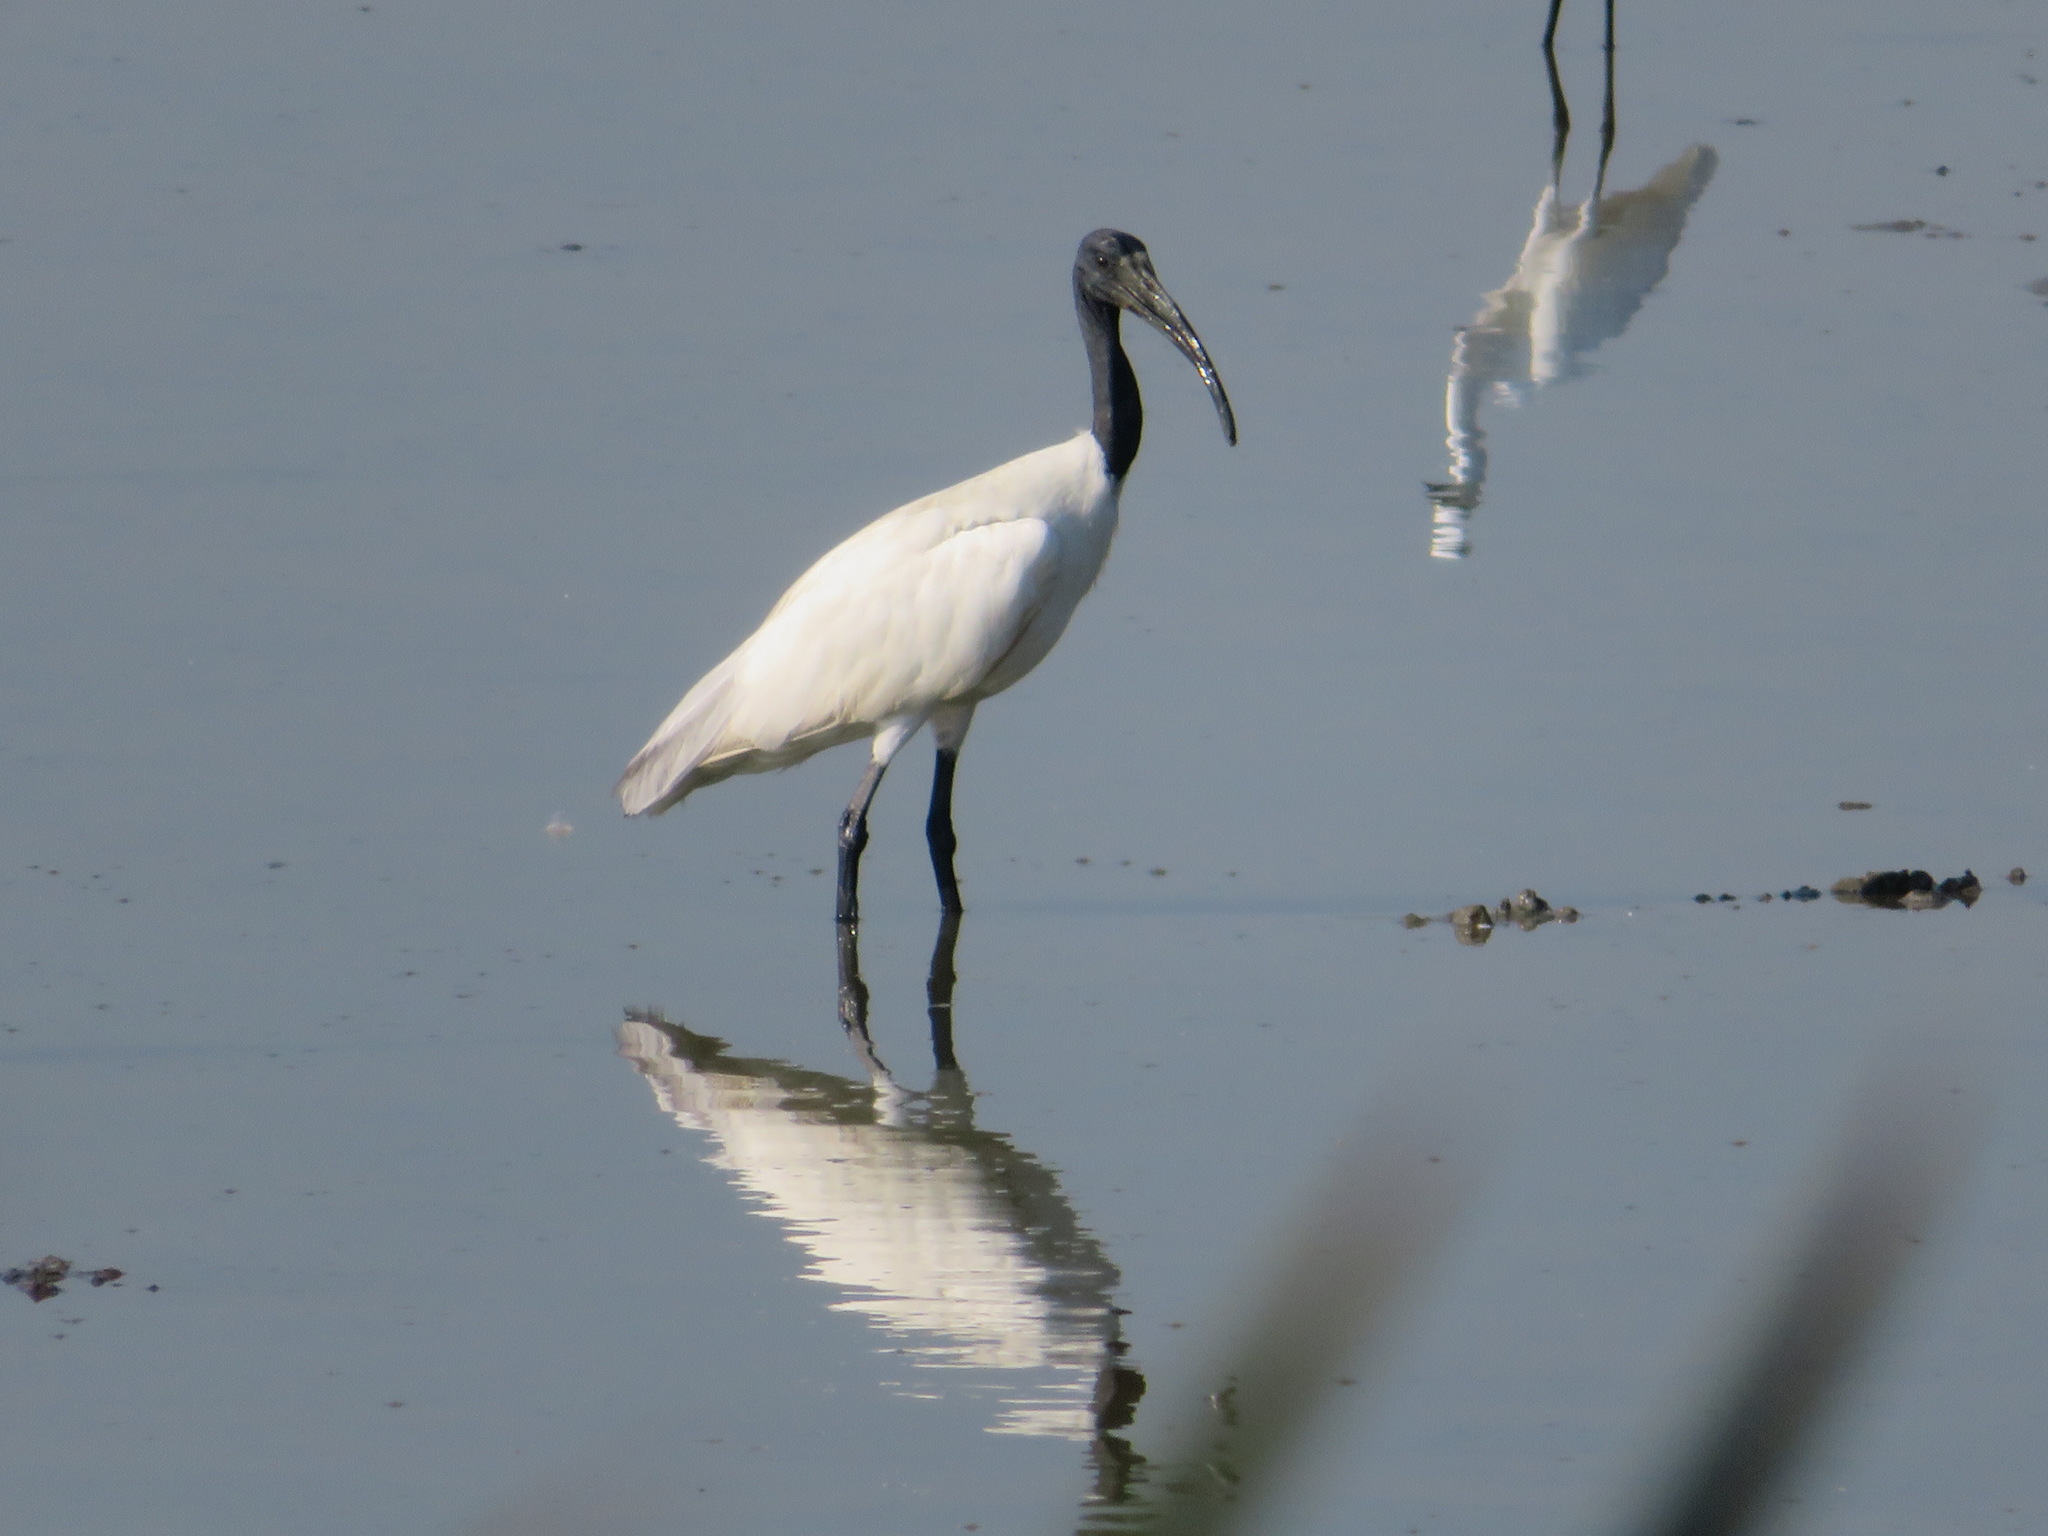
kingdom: Animalia
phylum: Chordata
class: Aves
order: Pelecaniformes
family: Threskiornithidae
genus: Threskiornis
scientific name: Threskiornis melanocephalus
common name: Black-headed ibis
